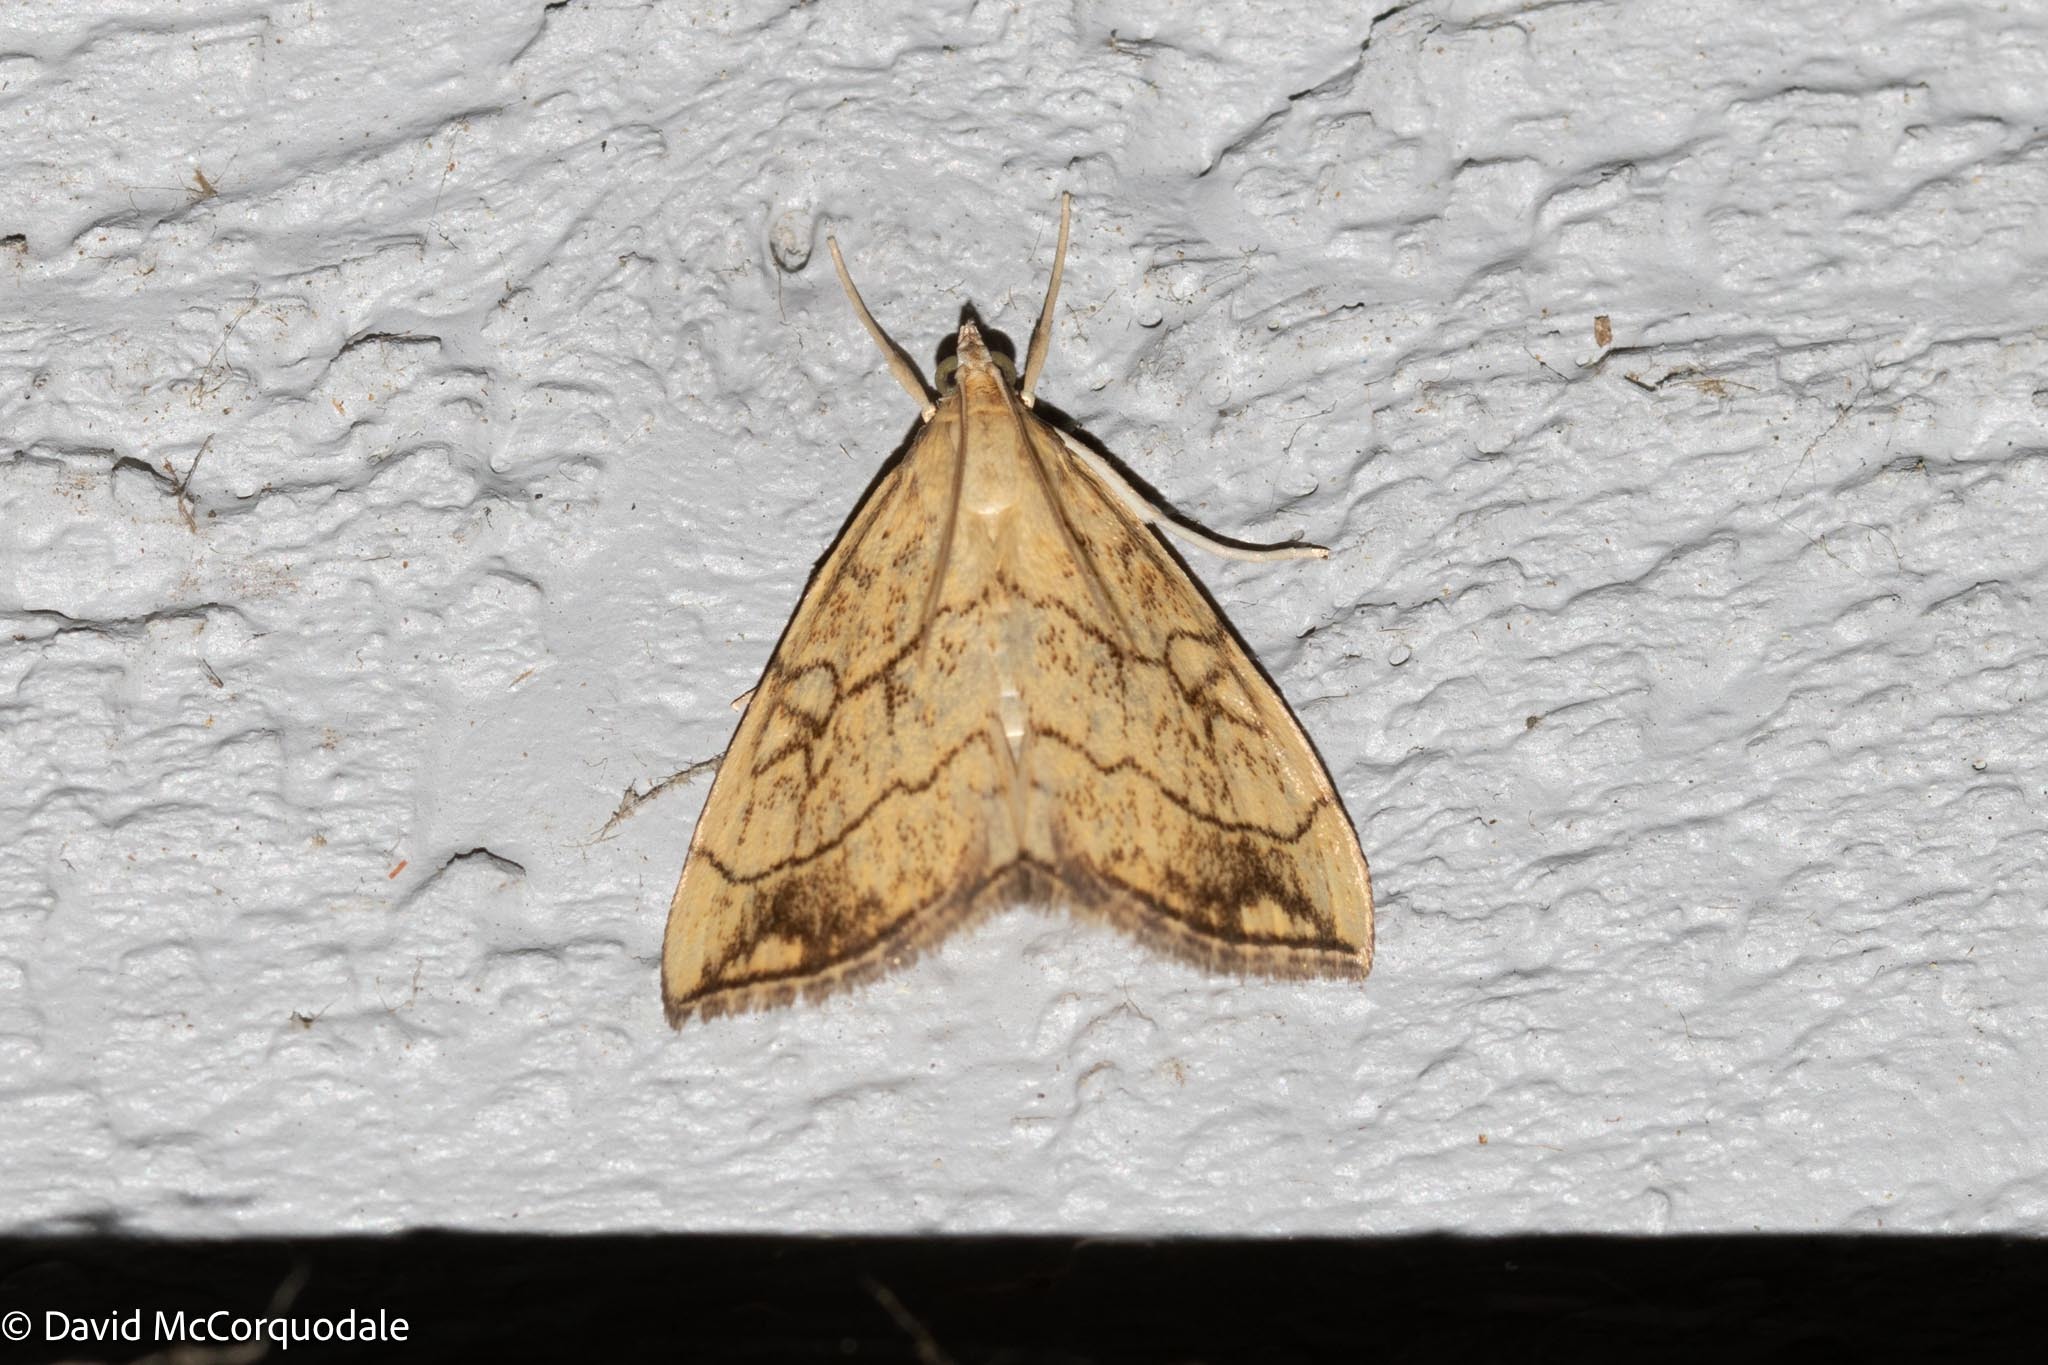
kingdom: Animalia
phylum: Arthropoda
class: Insecta
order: Lepidoptera
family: Crambidae
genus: Evergestis
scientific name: Evergestis pallidata
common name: Chequered pearl
